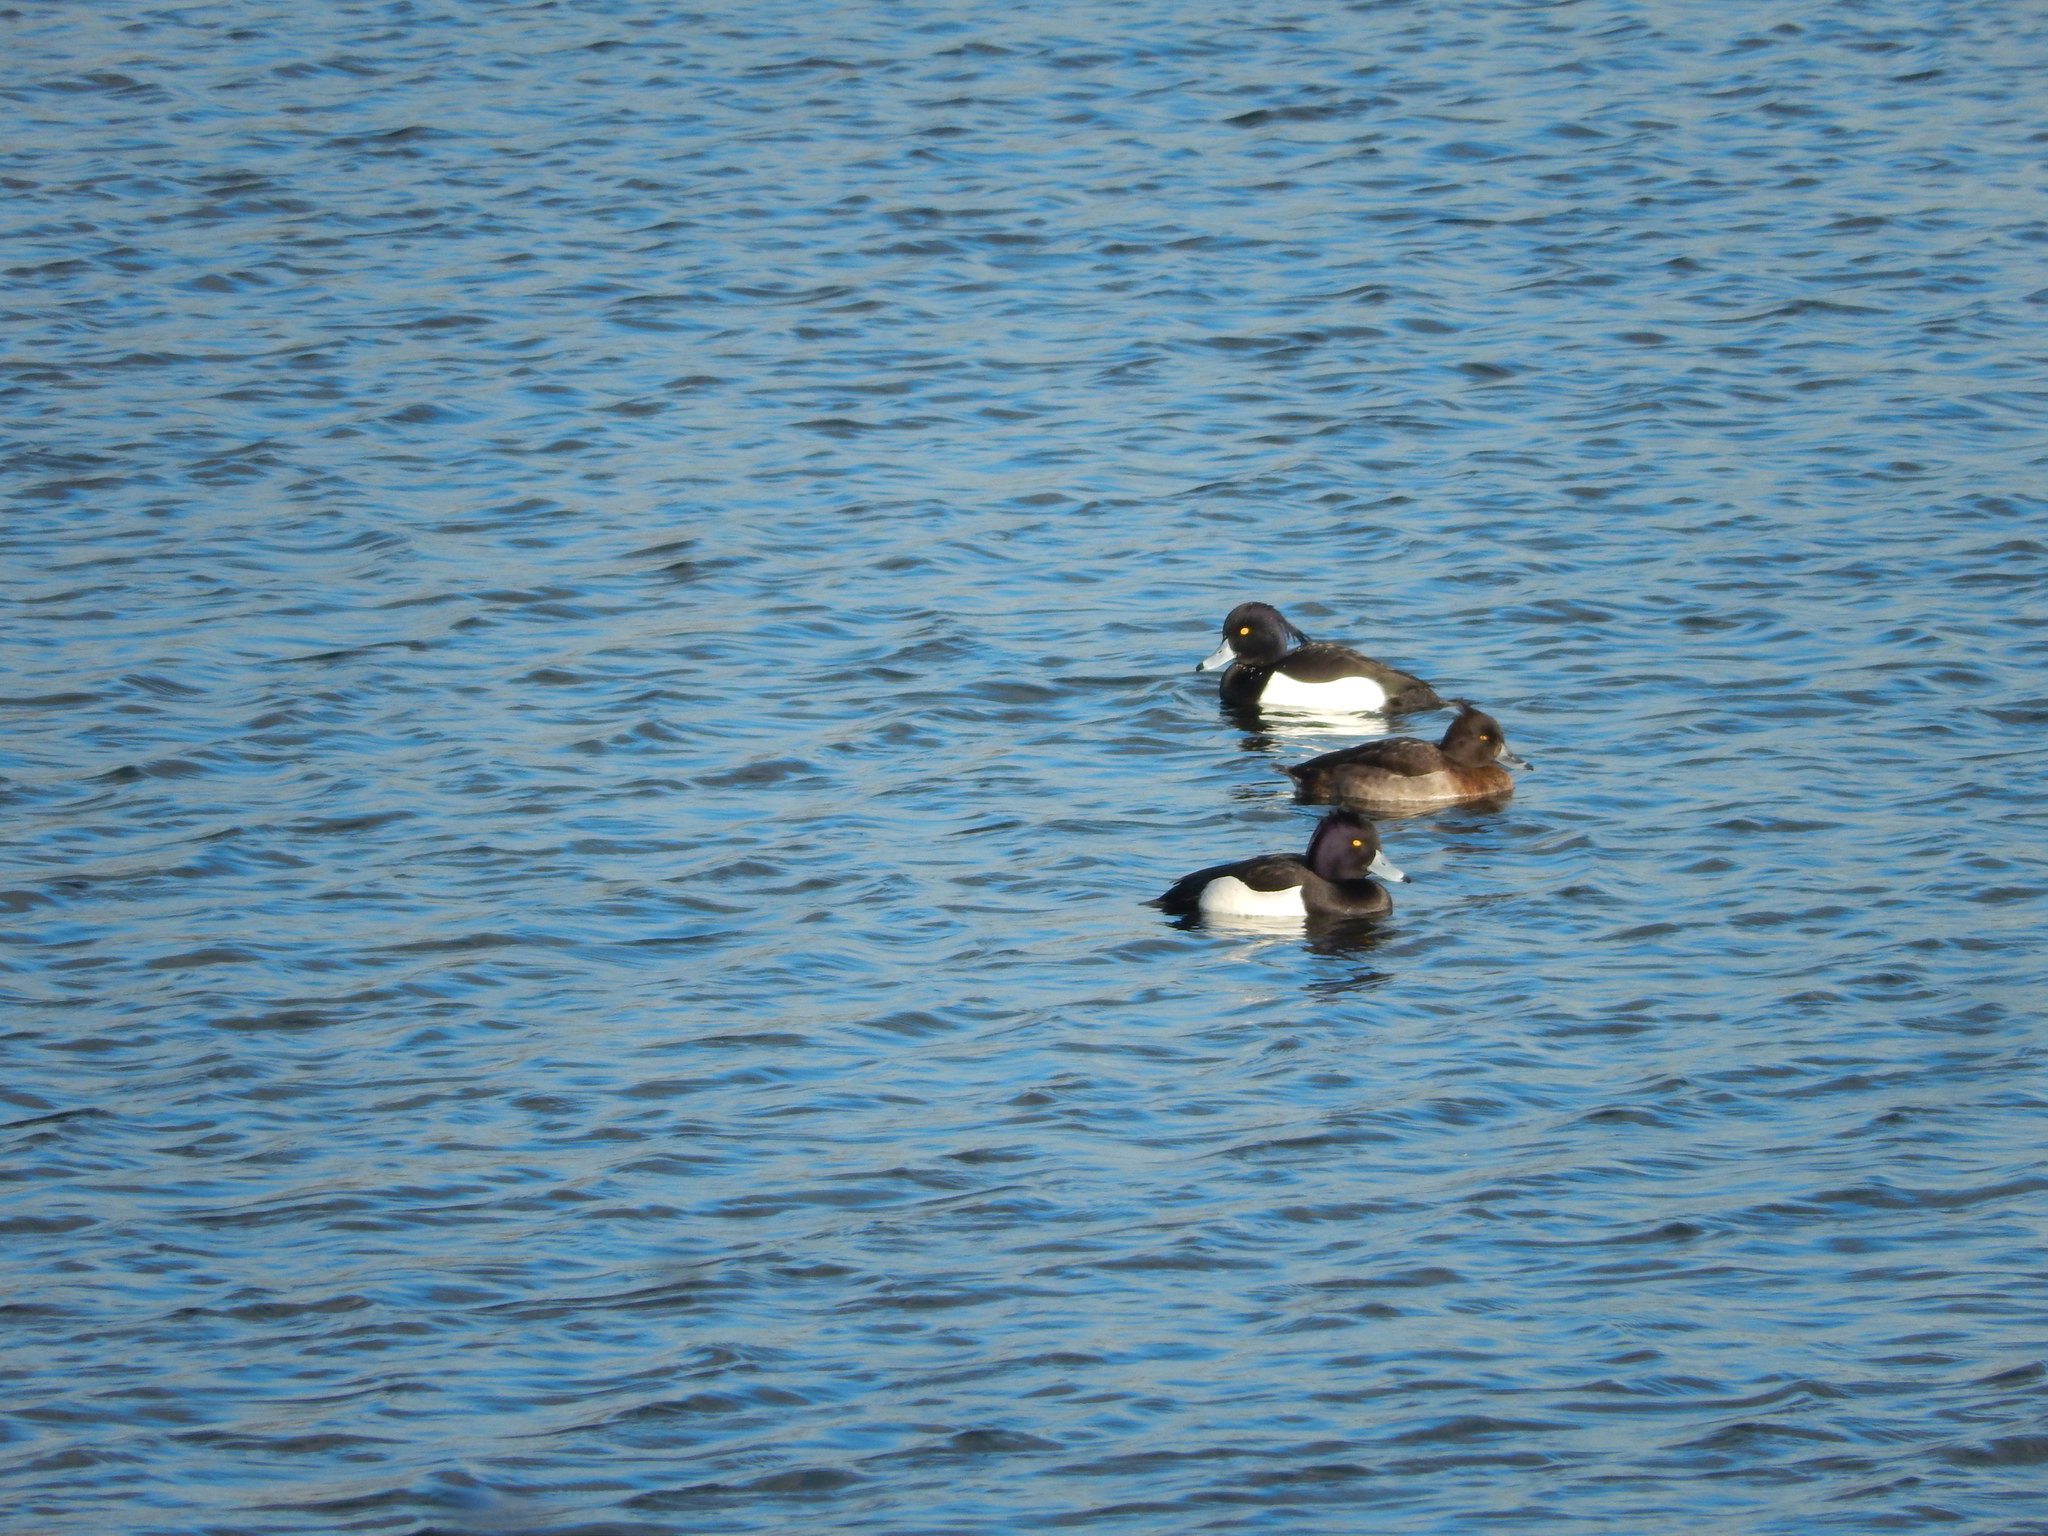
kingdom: Animalia
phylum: Chordata
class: Aves
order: Anseriformes
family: Anatidae
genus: Aythya
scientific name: Aythya fuligula
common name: Tufted duck
